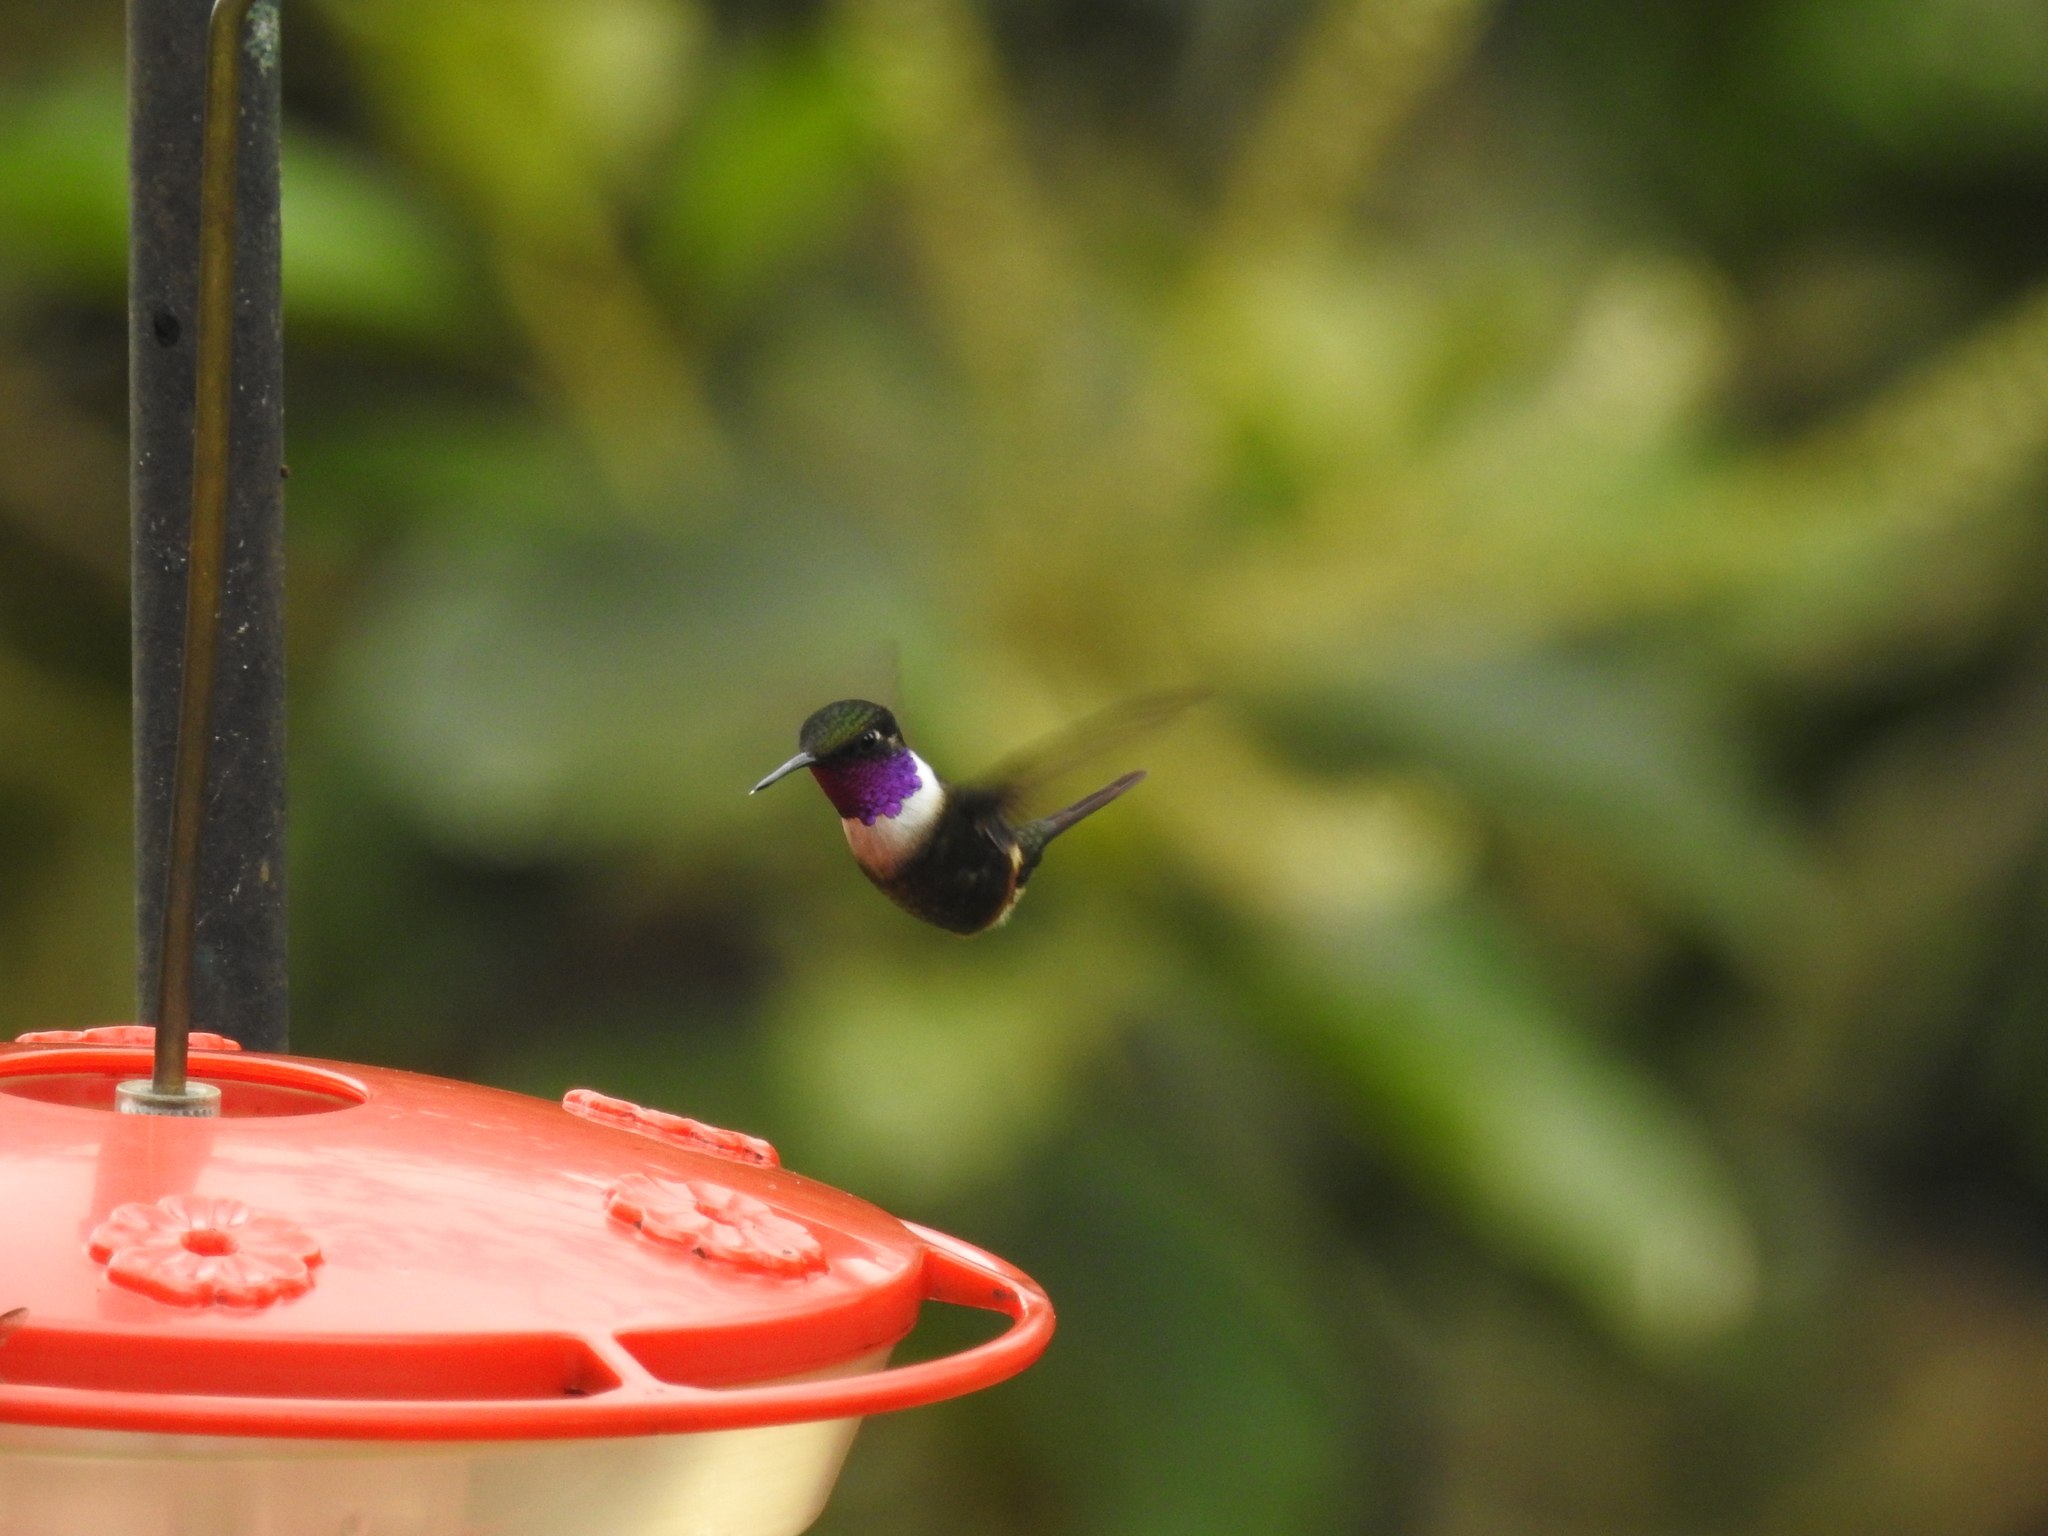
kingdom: Animalia
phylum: Chordata
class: Aves
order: Apodiformes
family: Trochilidae
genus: Calliphlox
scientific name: Calliphlox mitchellii
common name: Purple-throated woodstar
